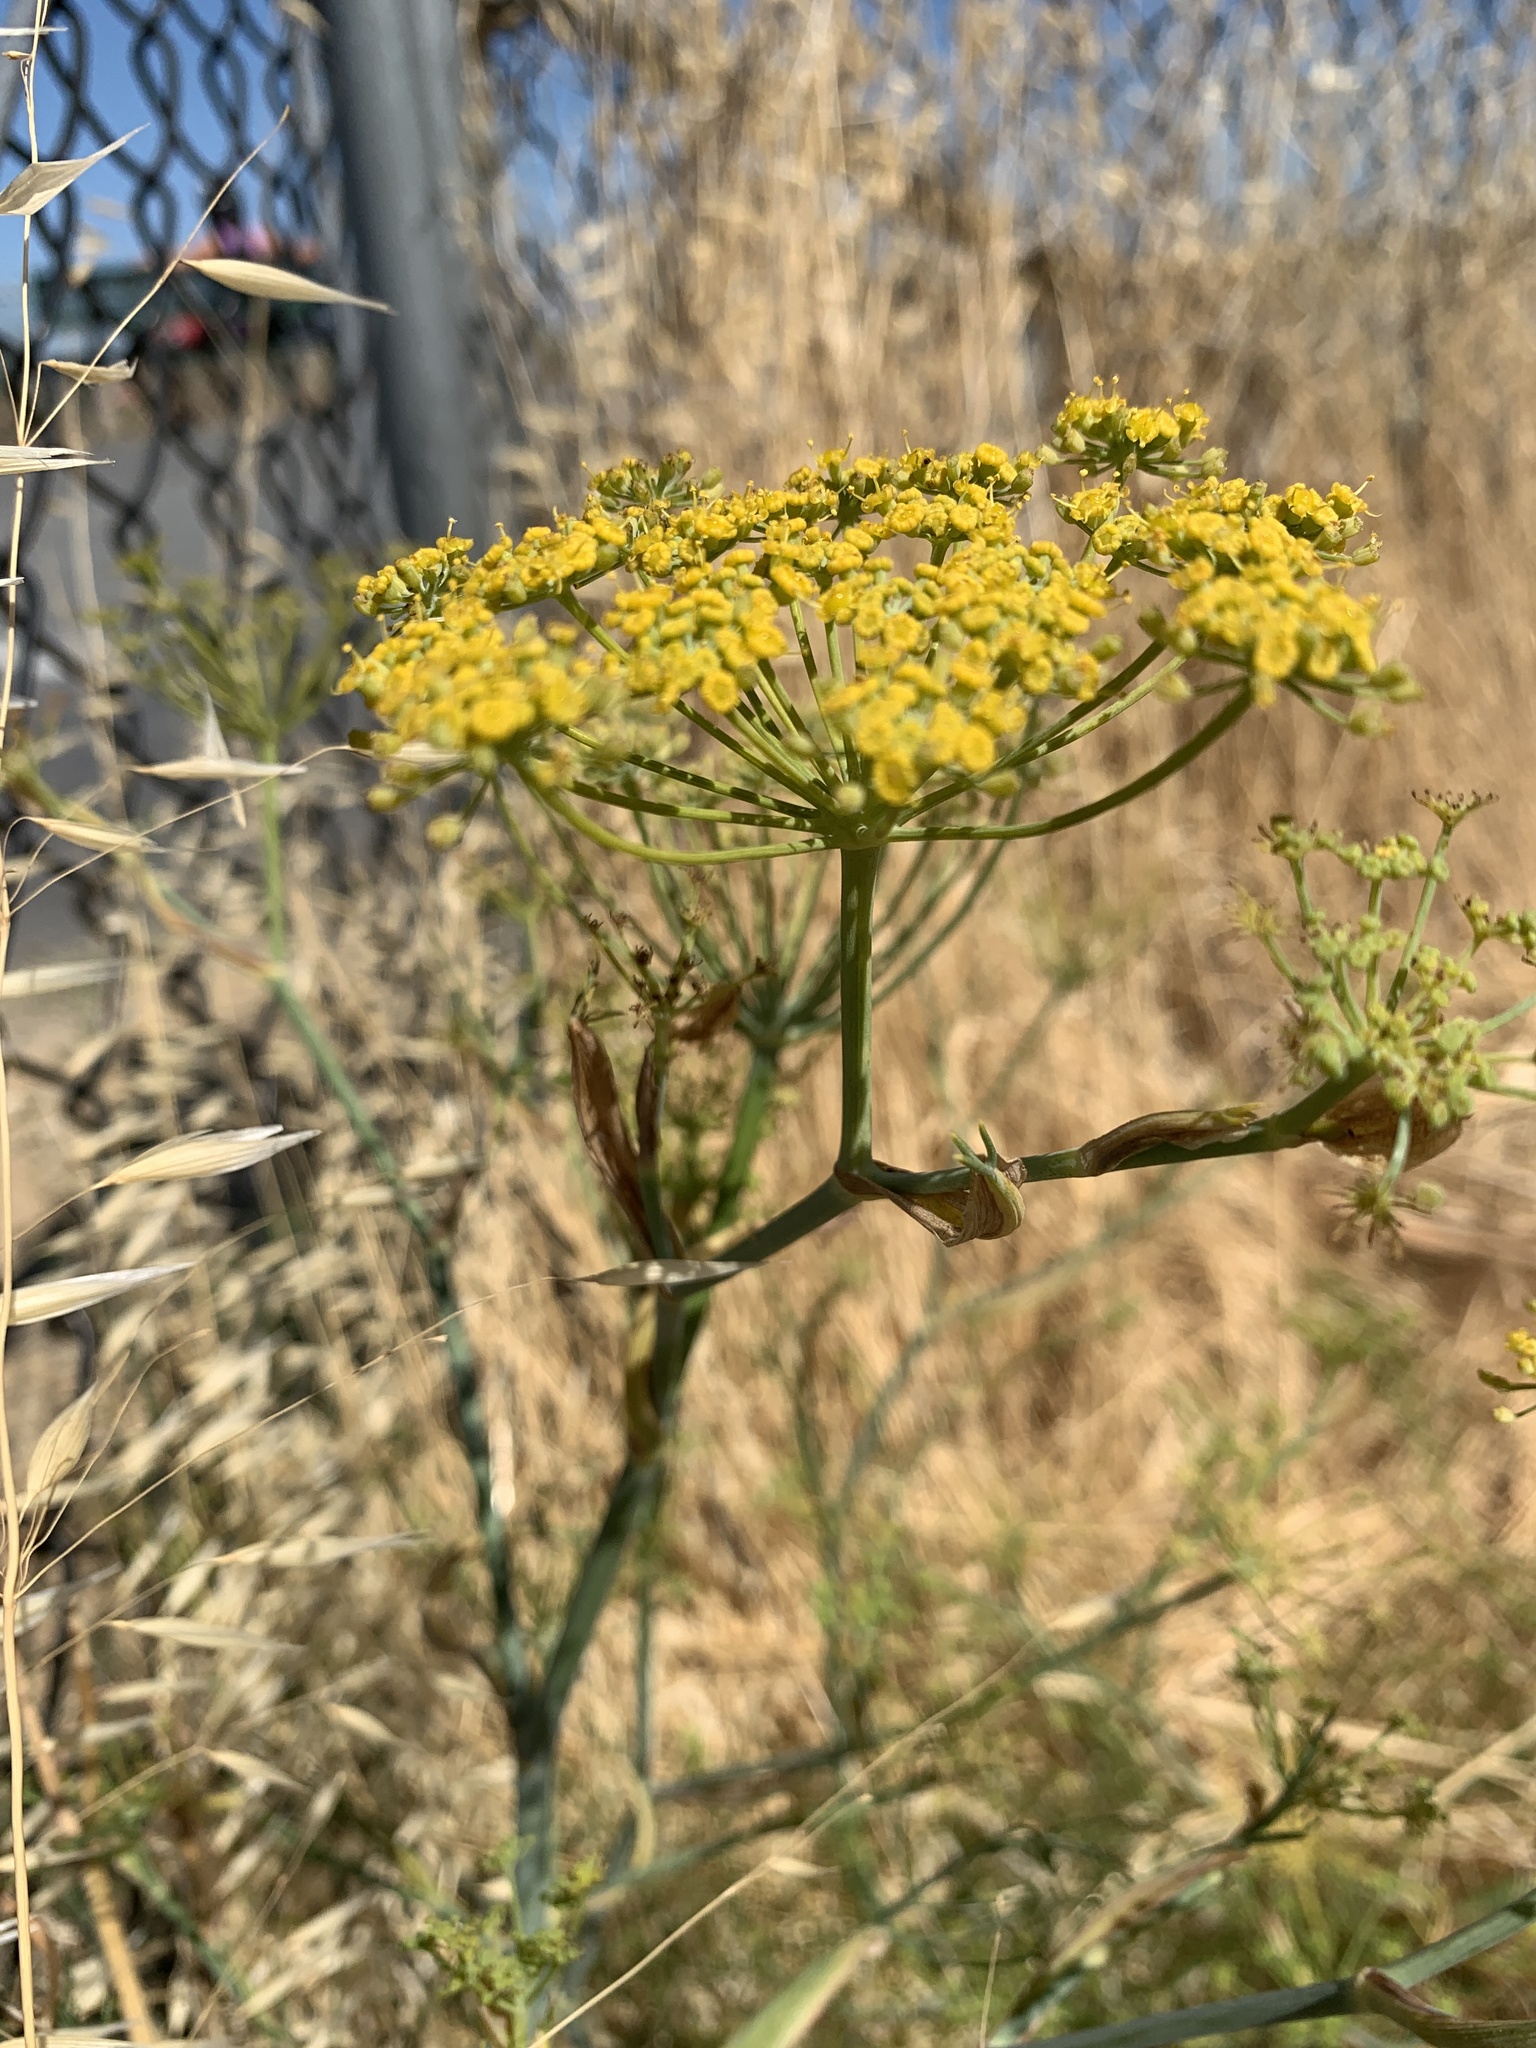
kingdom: Plantae
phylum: Tracheophyta
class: Magnoliopsida
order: Apiales
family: Apiaceae
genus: Foeniculum
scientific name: Foeniculum vulgare
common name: Fennel
